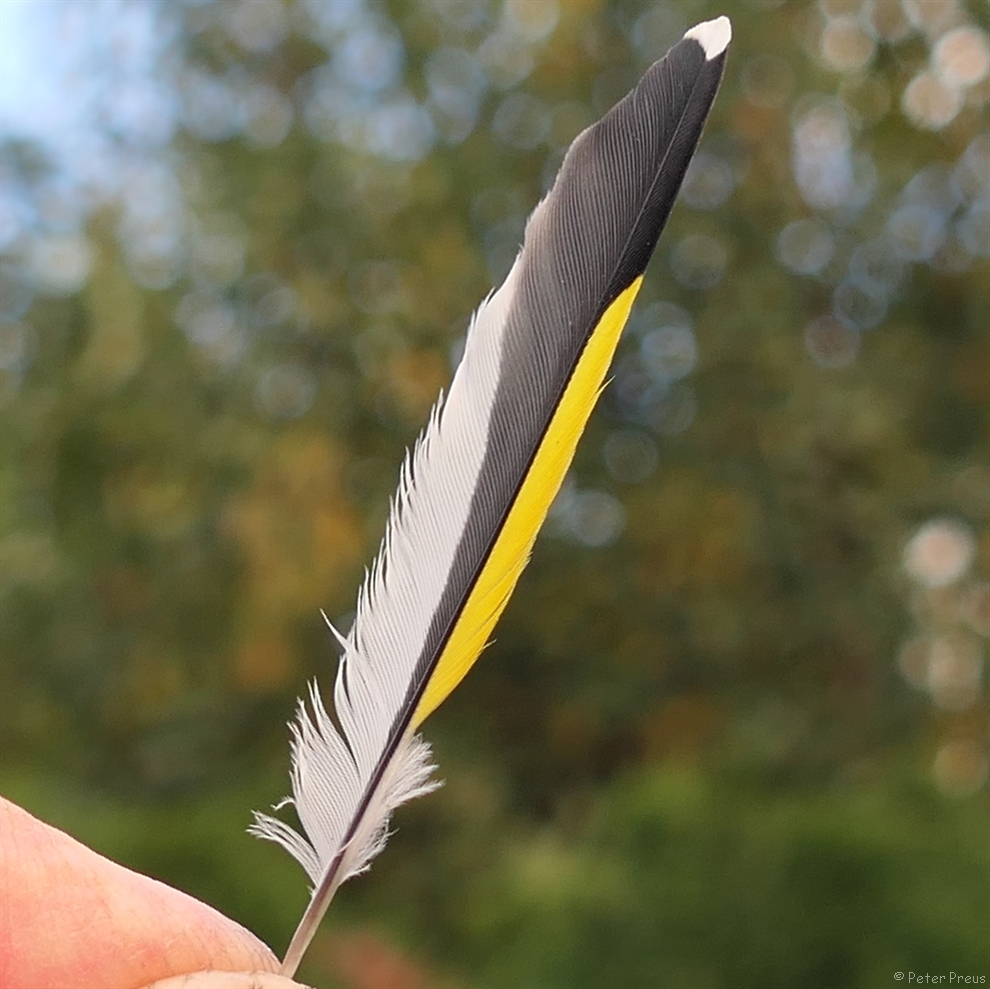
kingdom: Animalia
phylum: Chordata
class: Aves
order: Passeriformes
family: Fringillidae
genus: Carduelis
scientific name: Carduelis carduelis
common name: European goldfinch
